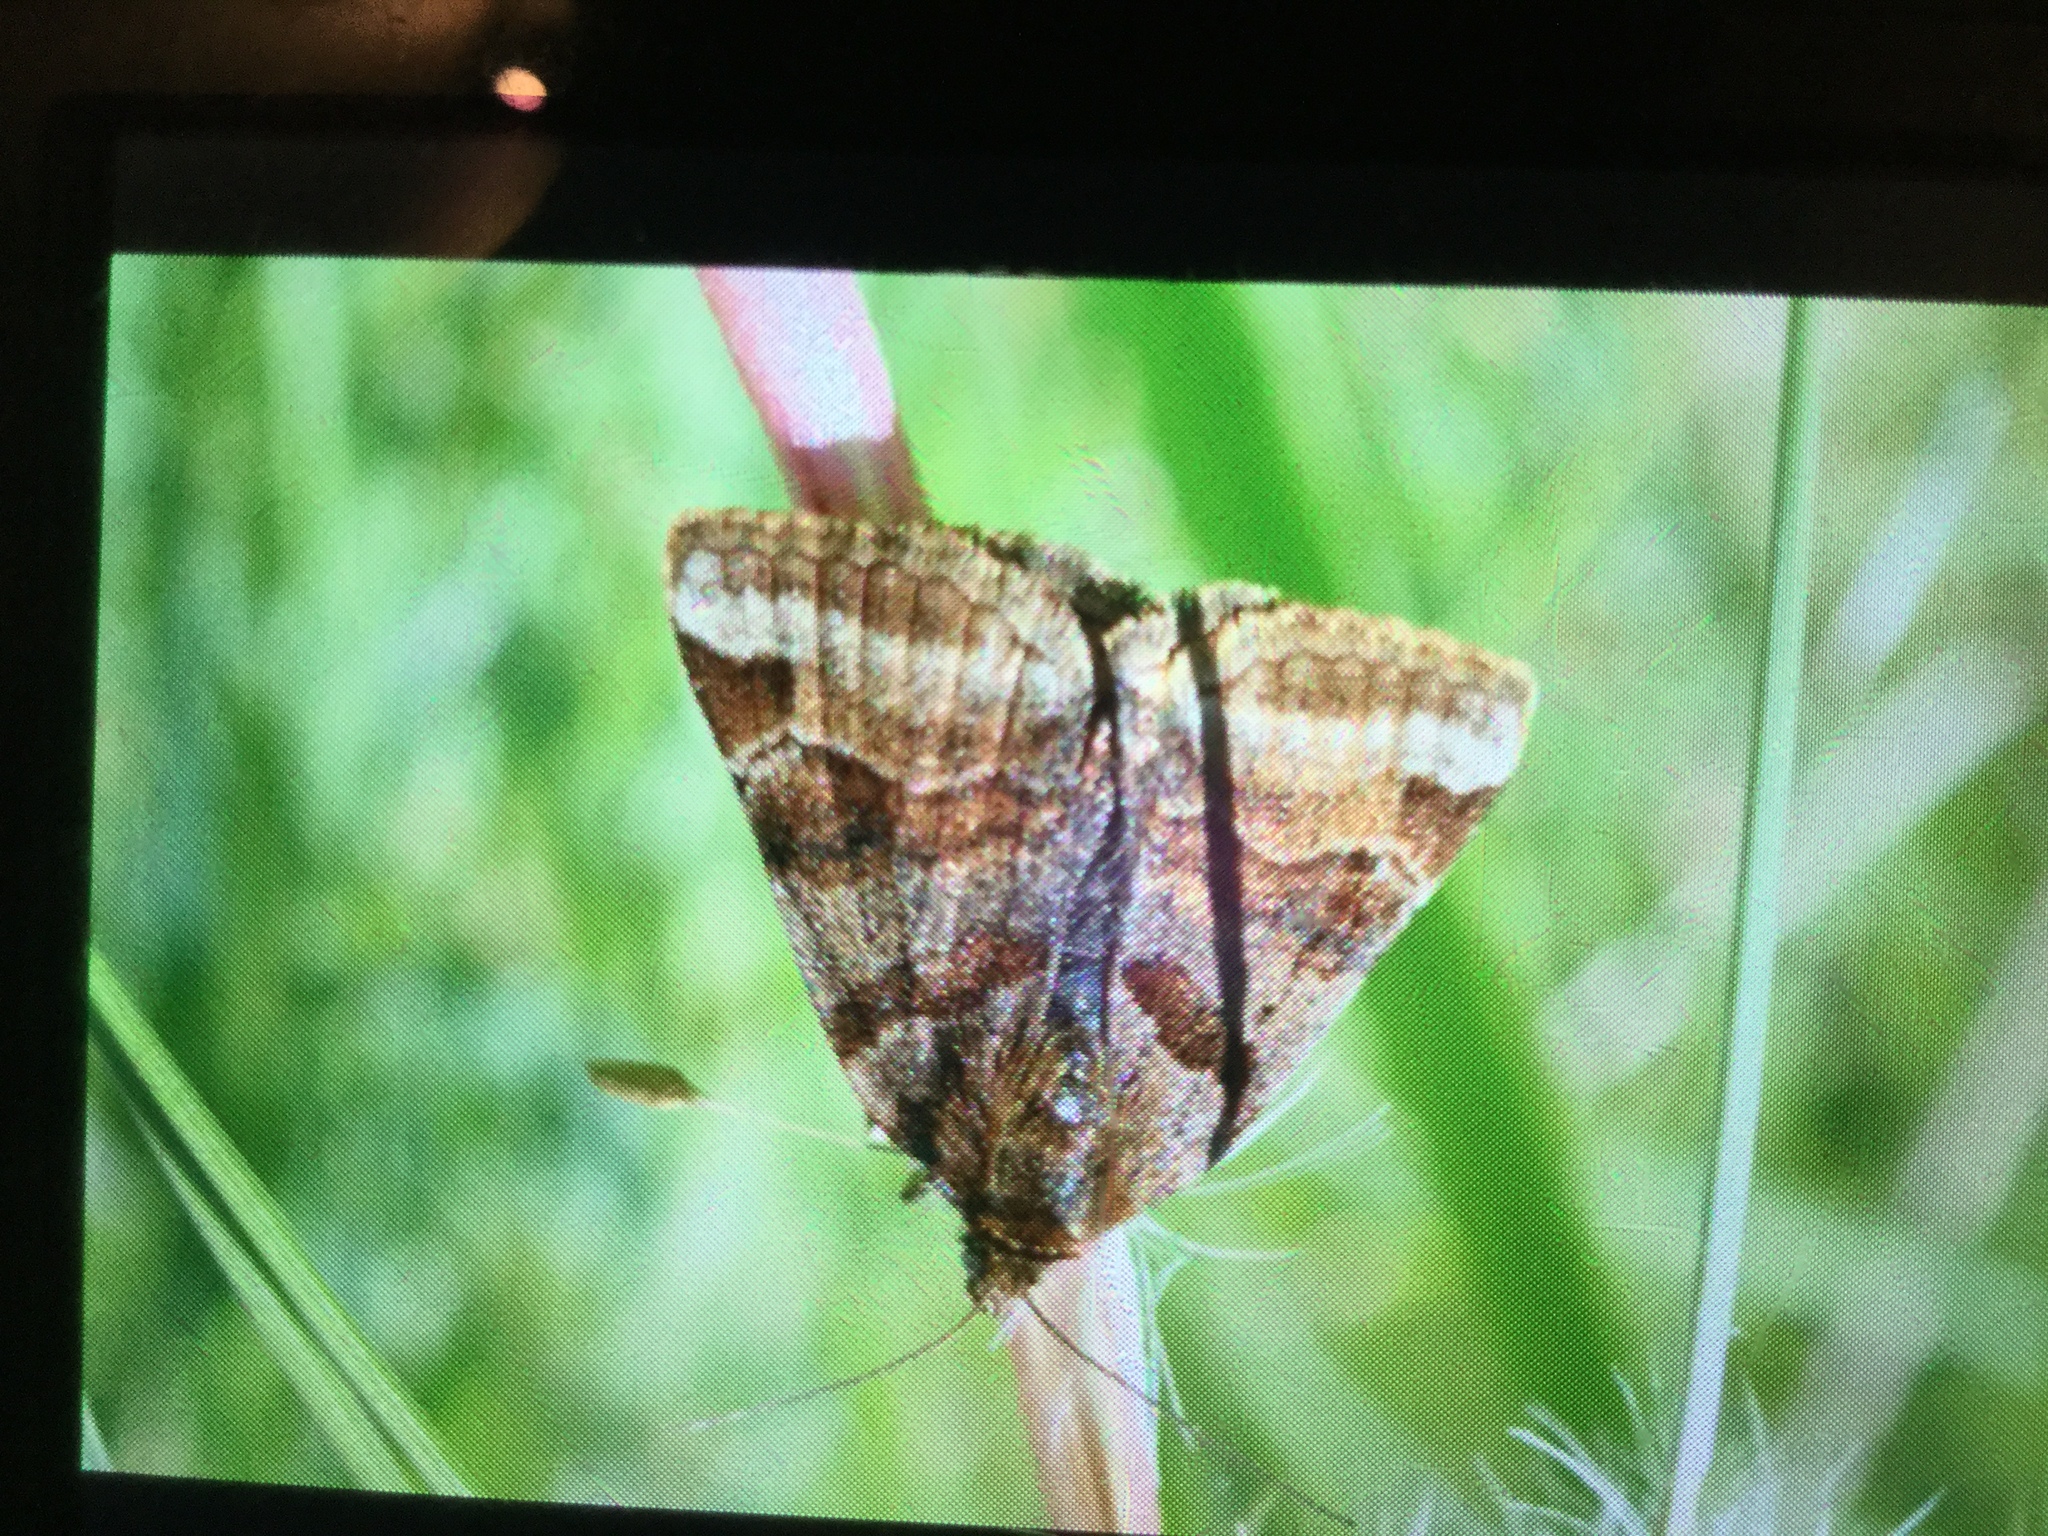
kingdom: Animalia
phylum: Arthropoda
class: Insecta
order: Lepidoptera
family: Erebidae
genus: Euclidia
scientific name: Euclidia glyphica
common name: Burnet companion
